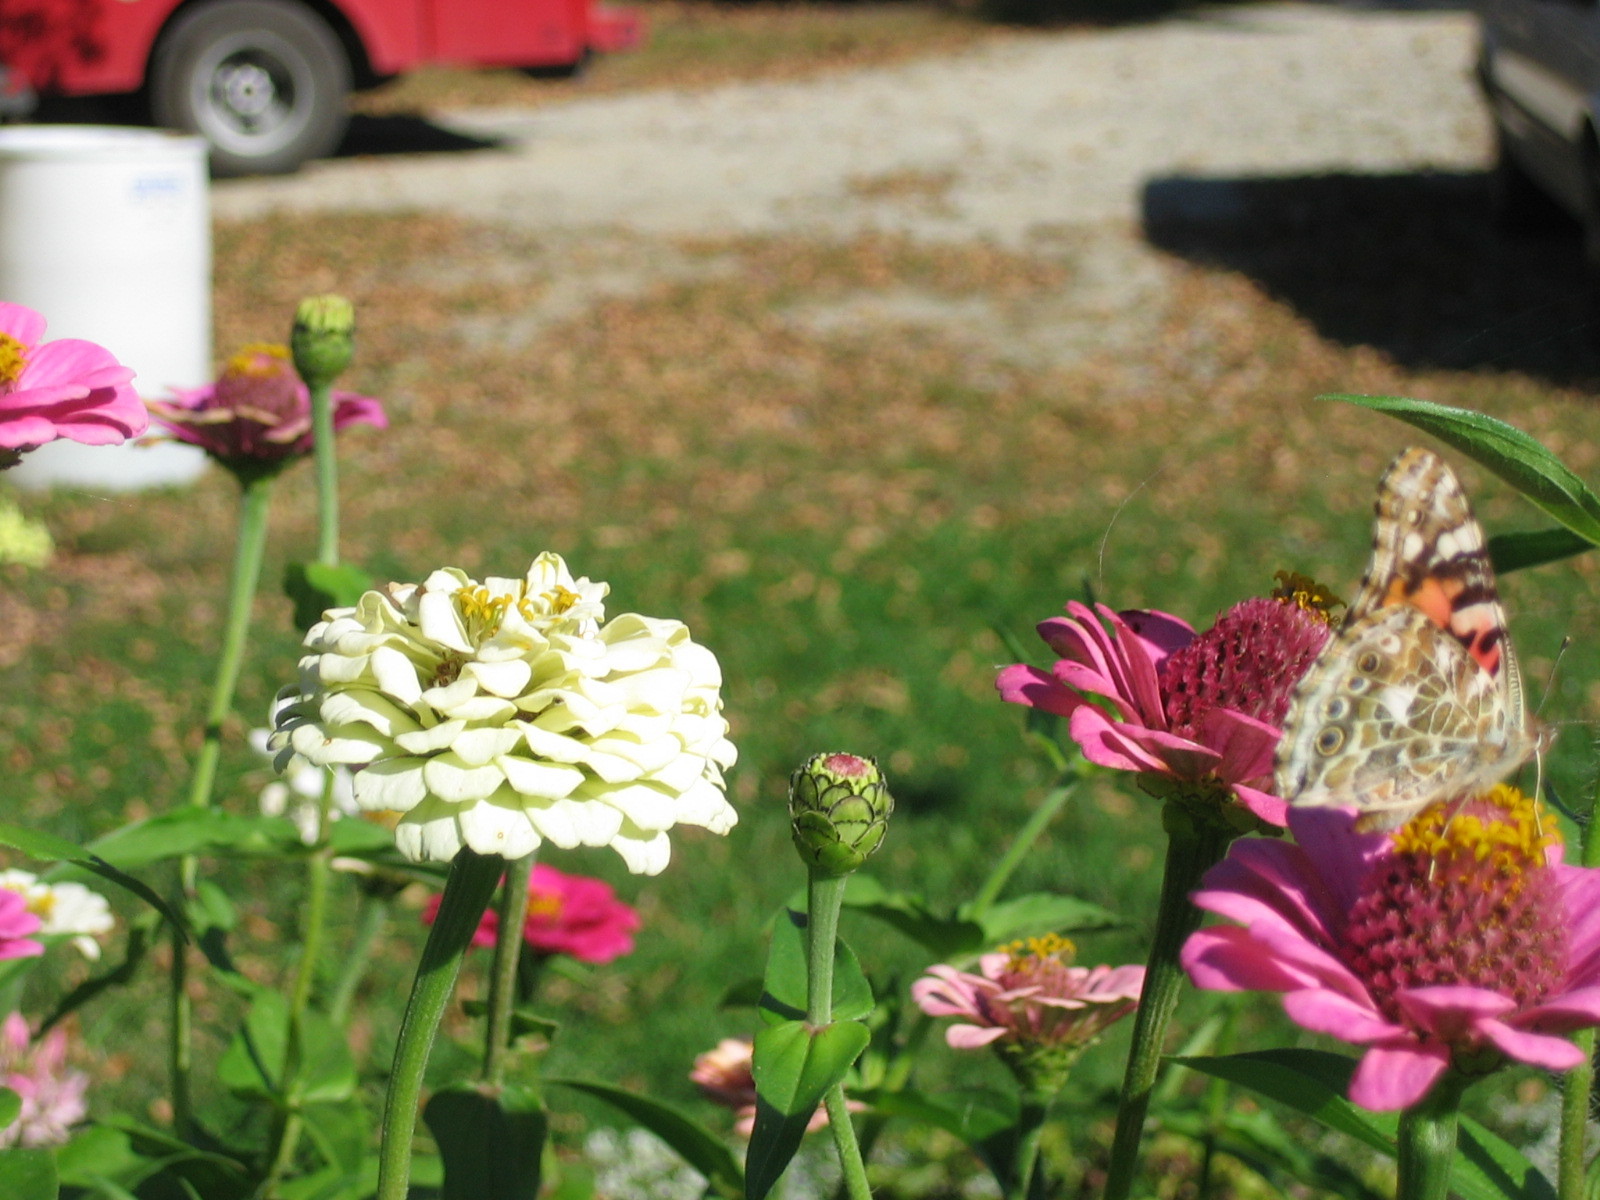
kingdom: Animalia
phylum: Arthropoda
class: Insecta
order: Lepidoptera
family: Nymphalidae
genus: Vanessa
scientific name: Vanessa cardui
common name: Painted lady
